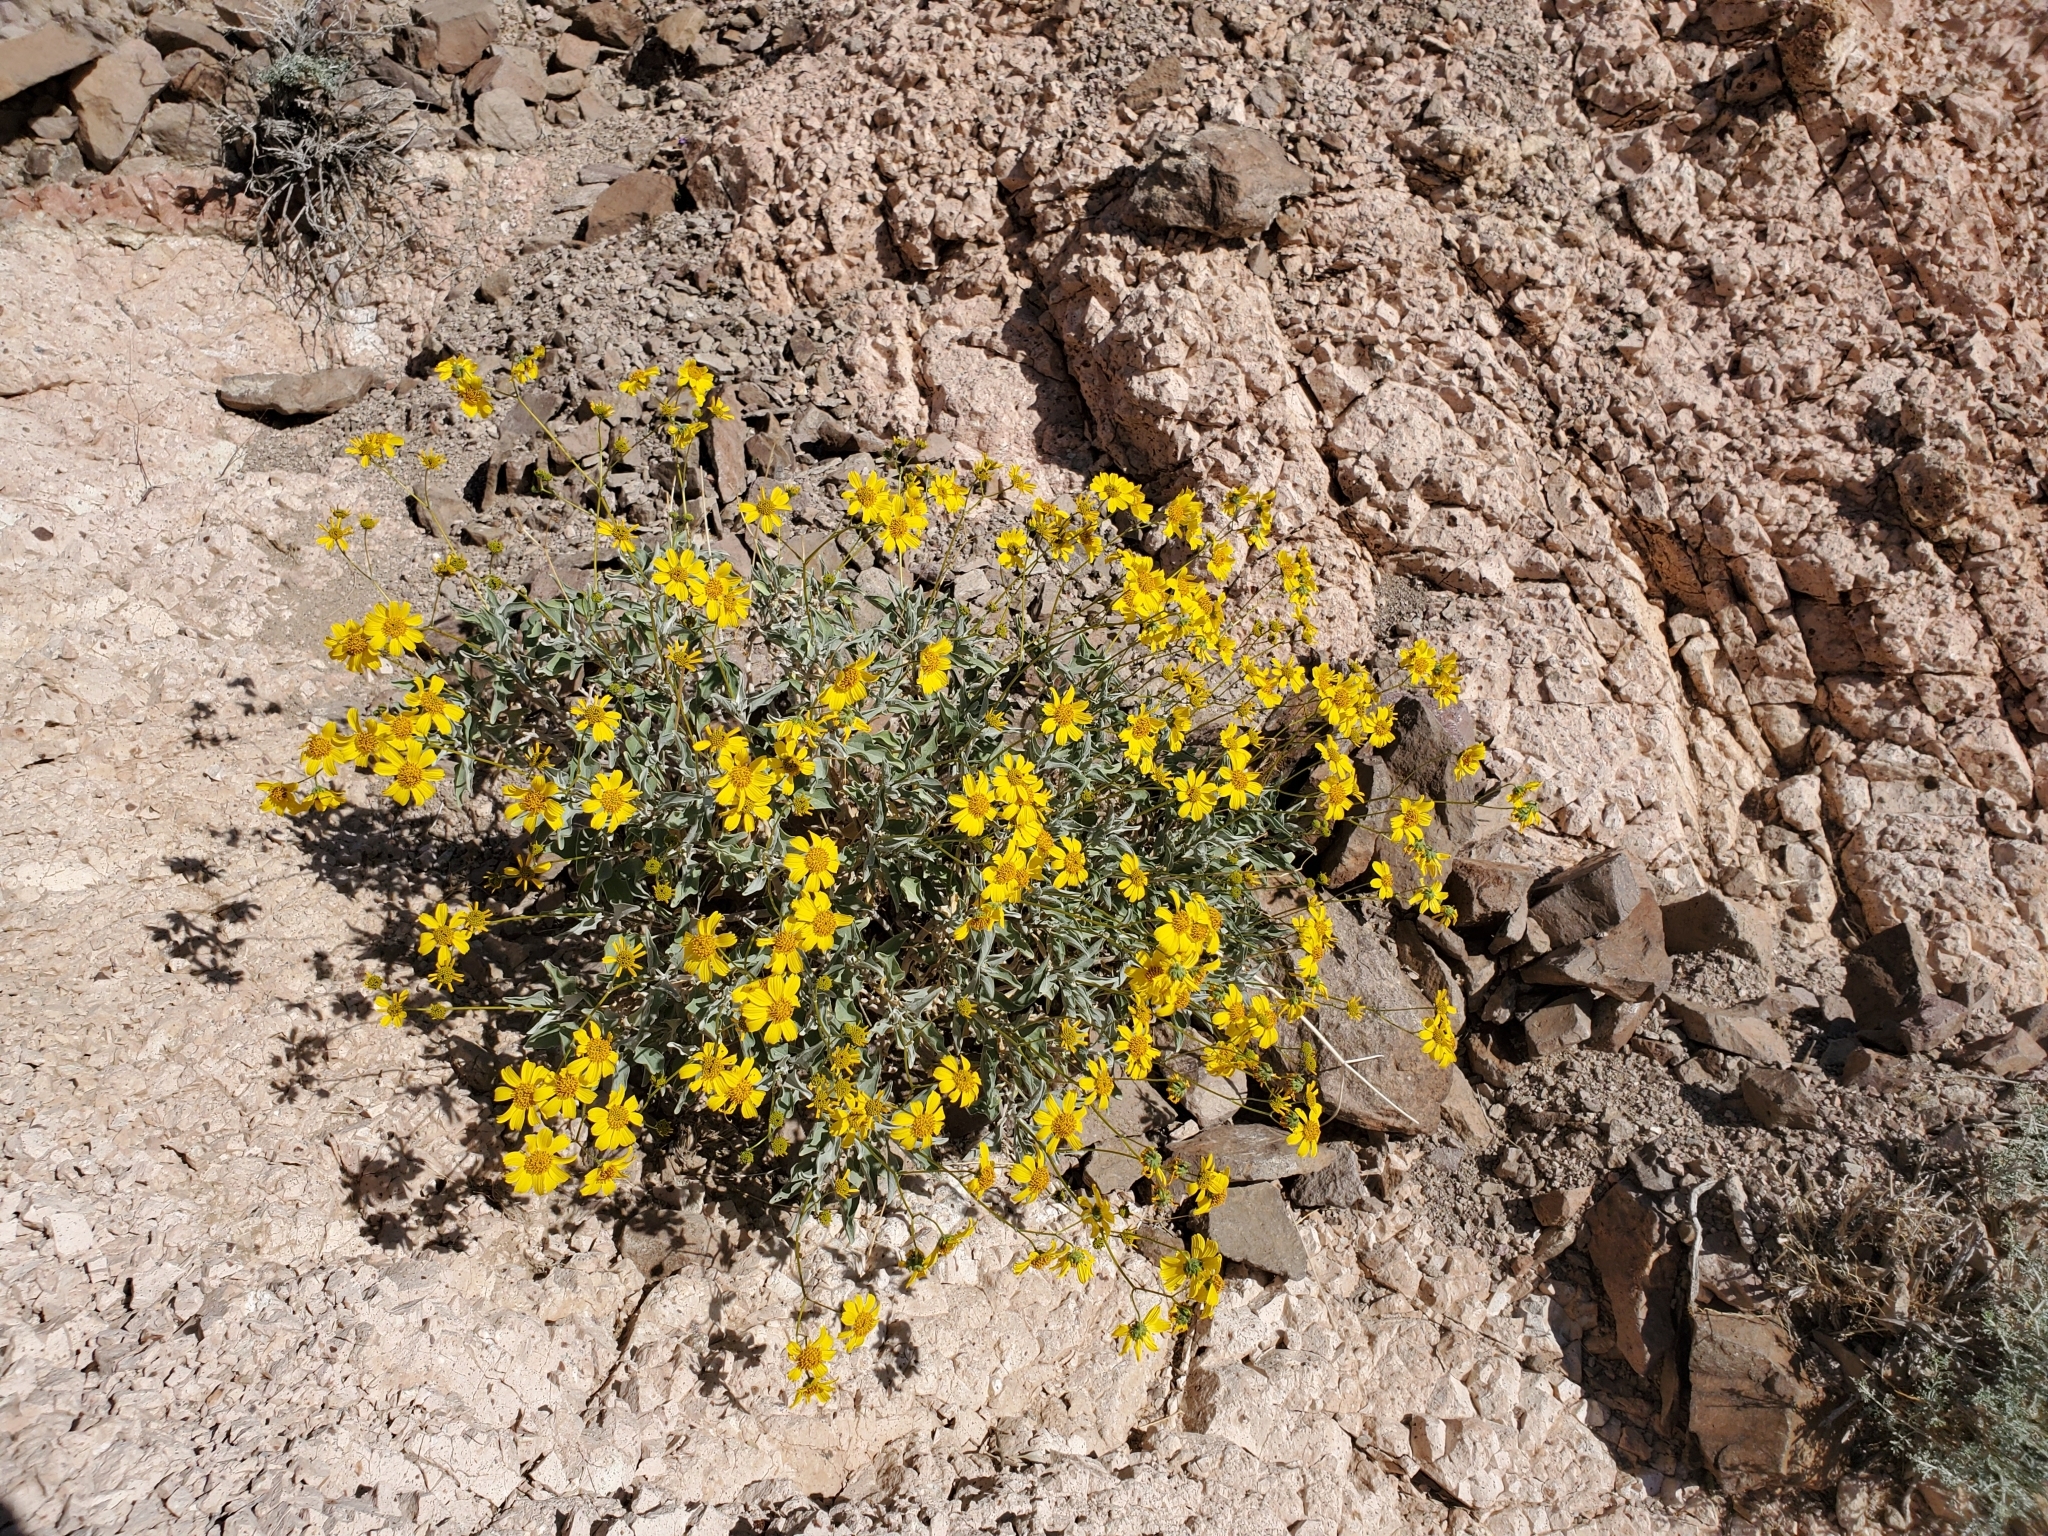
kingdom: Plantae
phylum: Tracheophyta
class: Magnoliopsida
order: Asterales
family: Asteraceae
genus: Encelia
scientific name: Encelia farinosa
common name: Brittlebush
